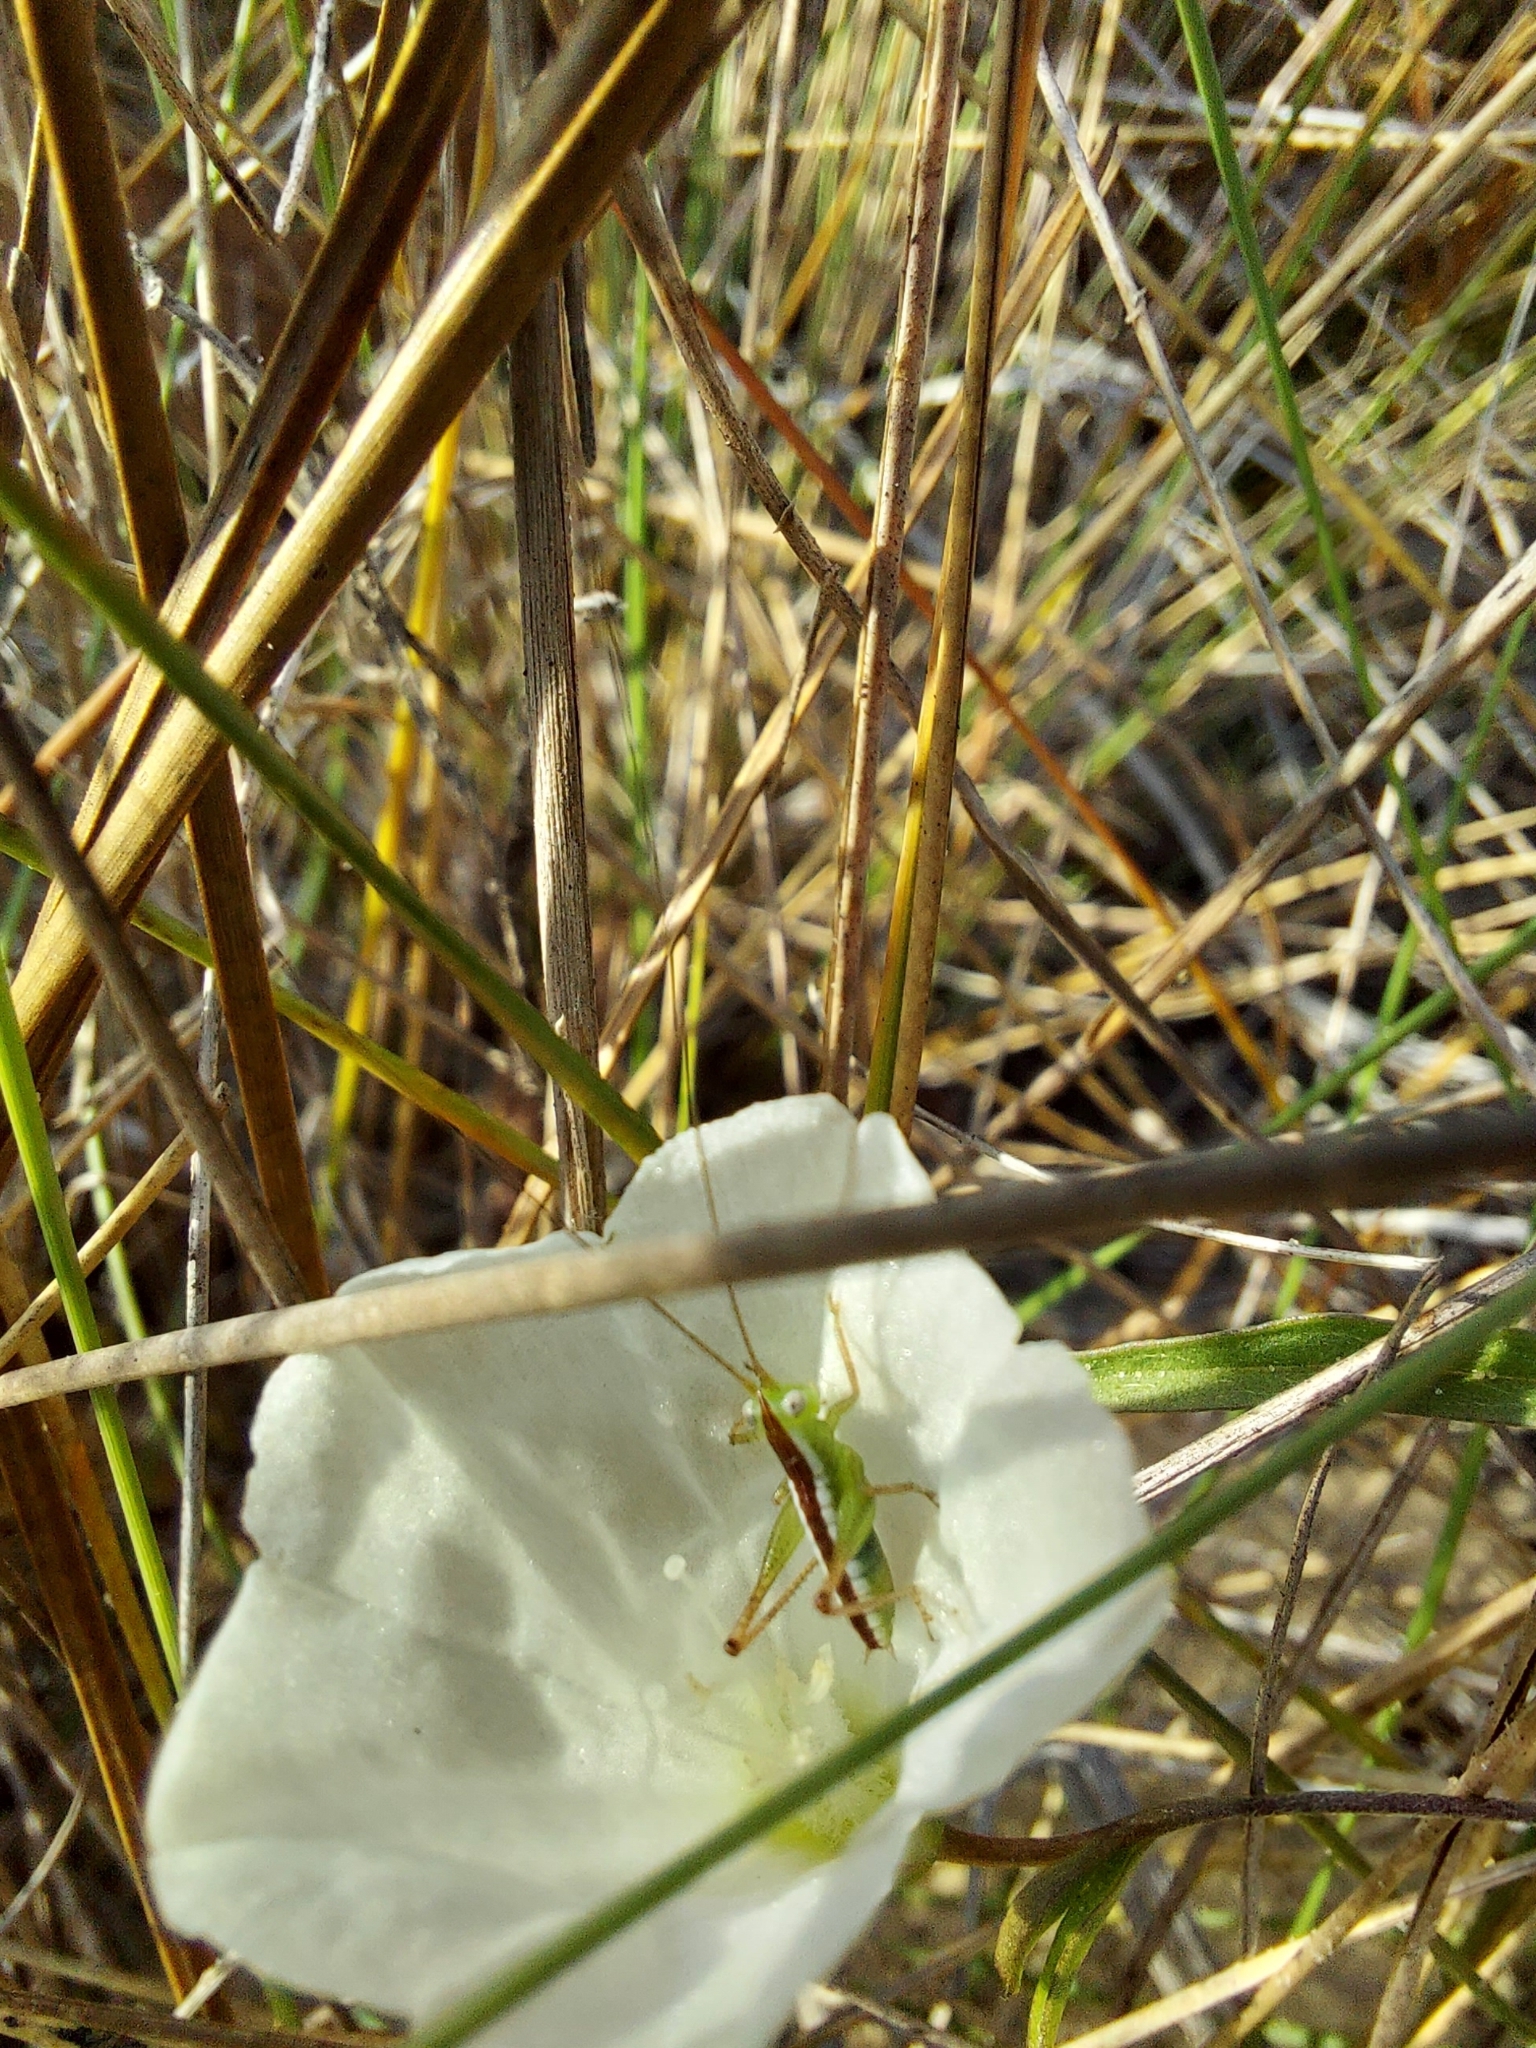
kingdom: Animalia
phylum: Arthropoda
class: Insecta
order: Orthoptera
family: Tettigoniidae
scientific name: Tettigoniidae
